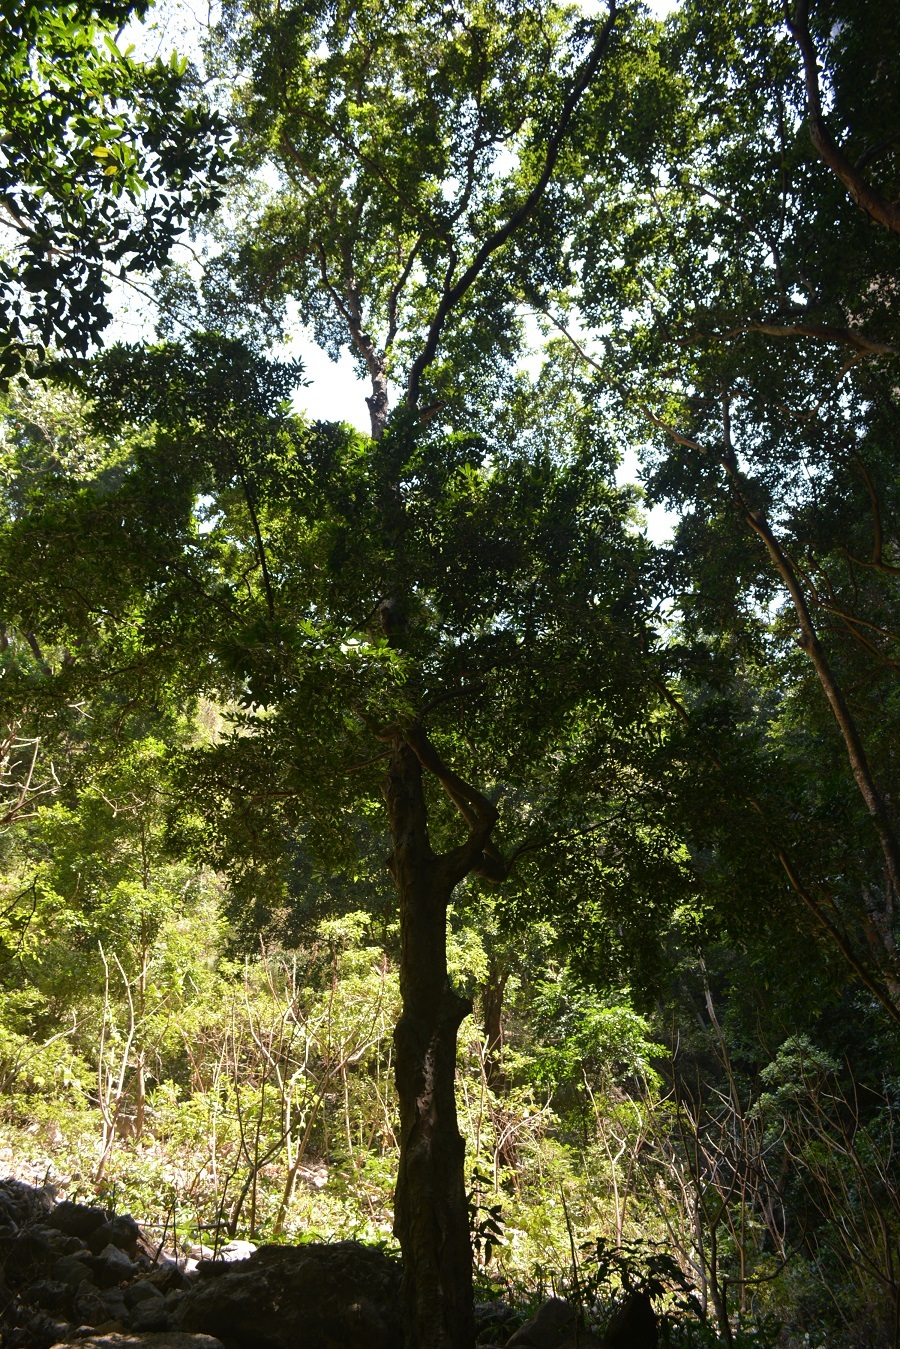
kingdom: Plantae
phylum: Tracheophyta
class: Magnoliopsida
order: Rosales
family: Moraceae
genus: Brosimum
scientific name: Brosimum alicastrum
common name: Breadnut
